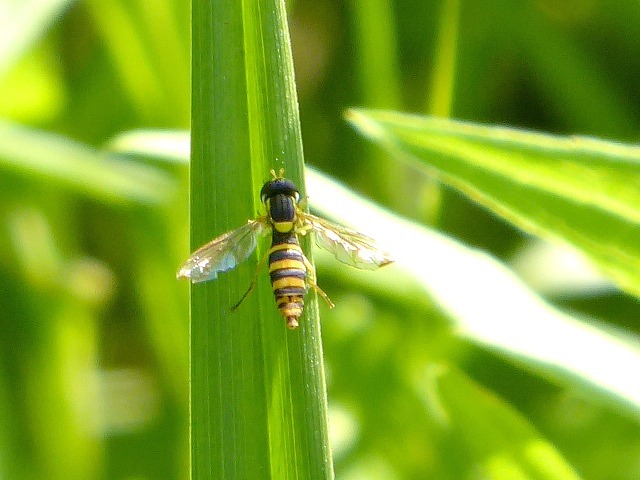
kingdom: Animalia
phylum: Arthropoda
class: Insecta
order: Diptera
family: Syrphidae
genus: Sphaerophoria
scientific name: Sphaerophoria
